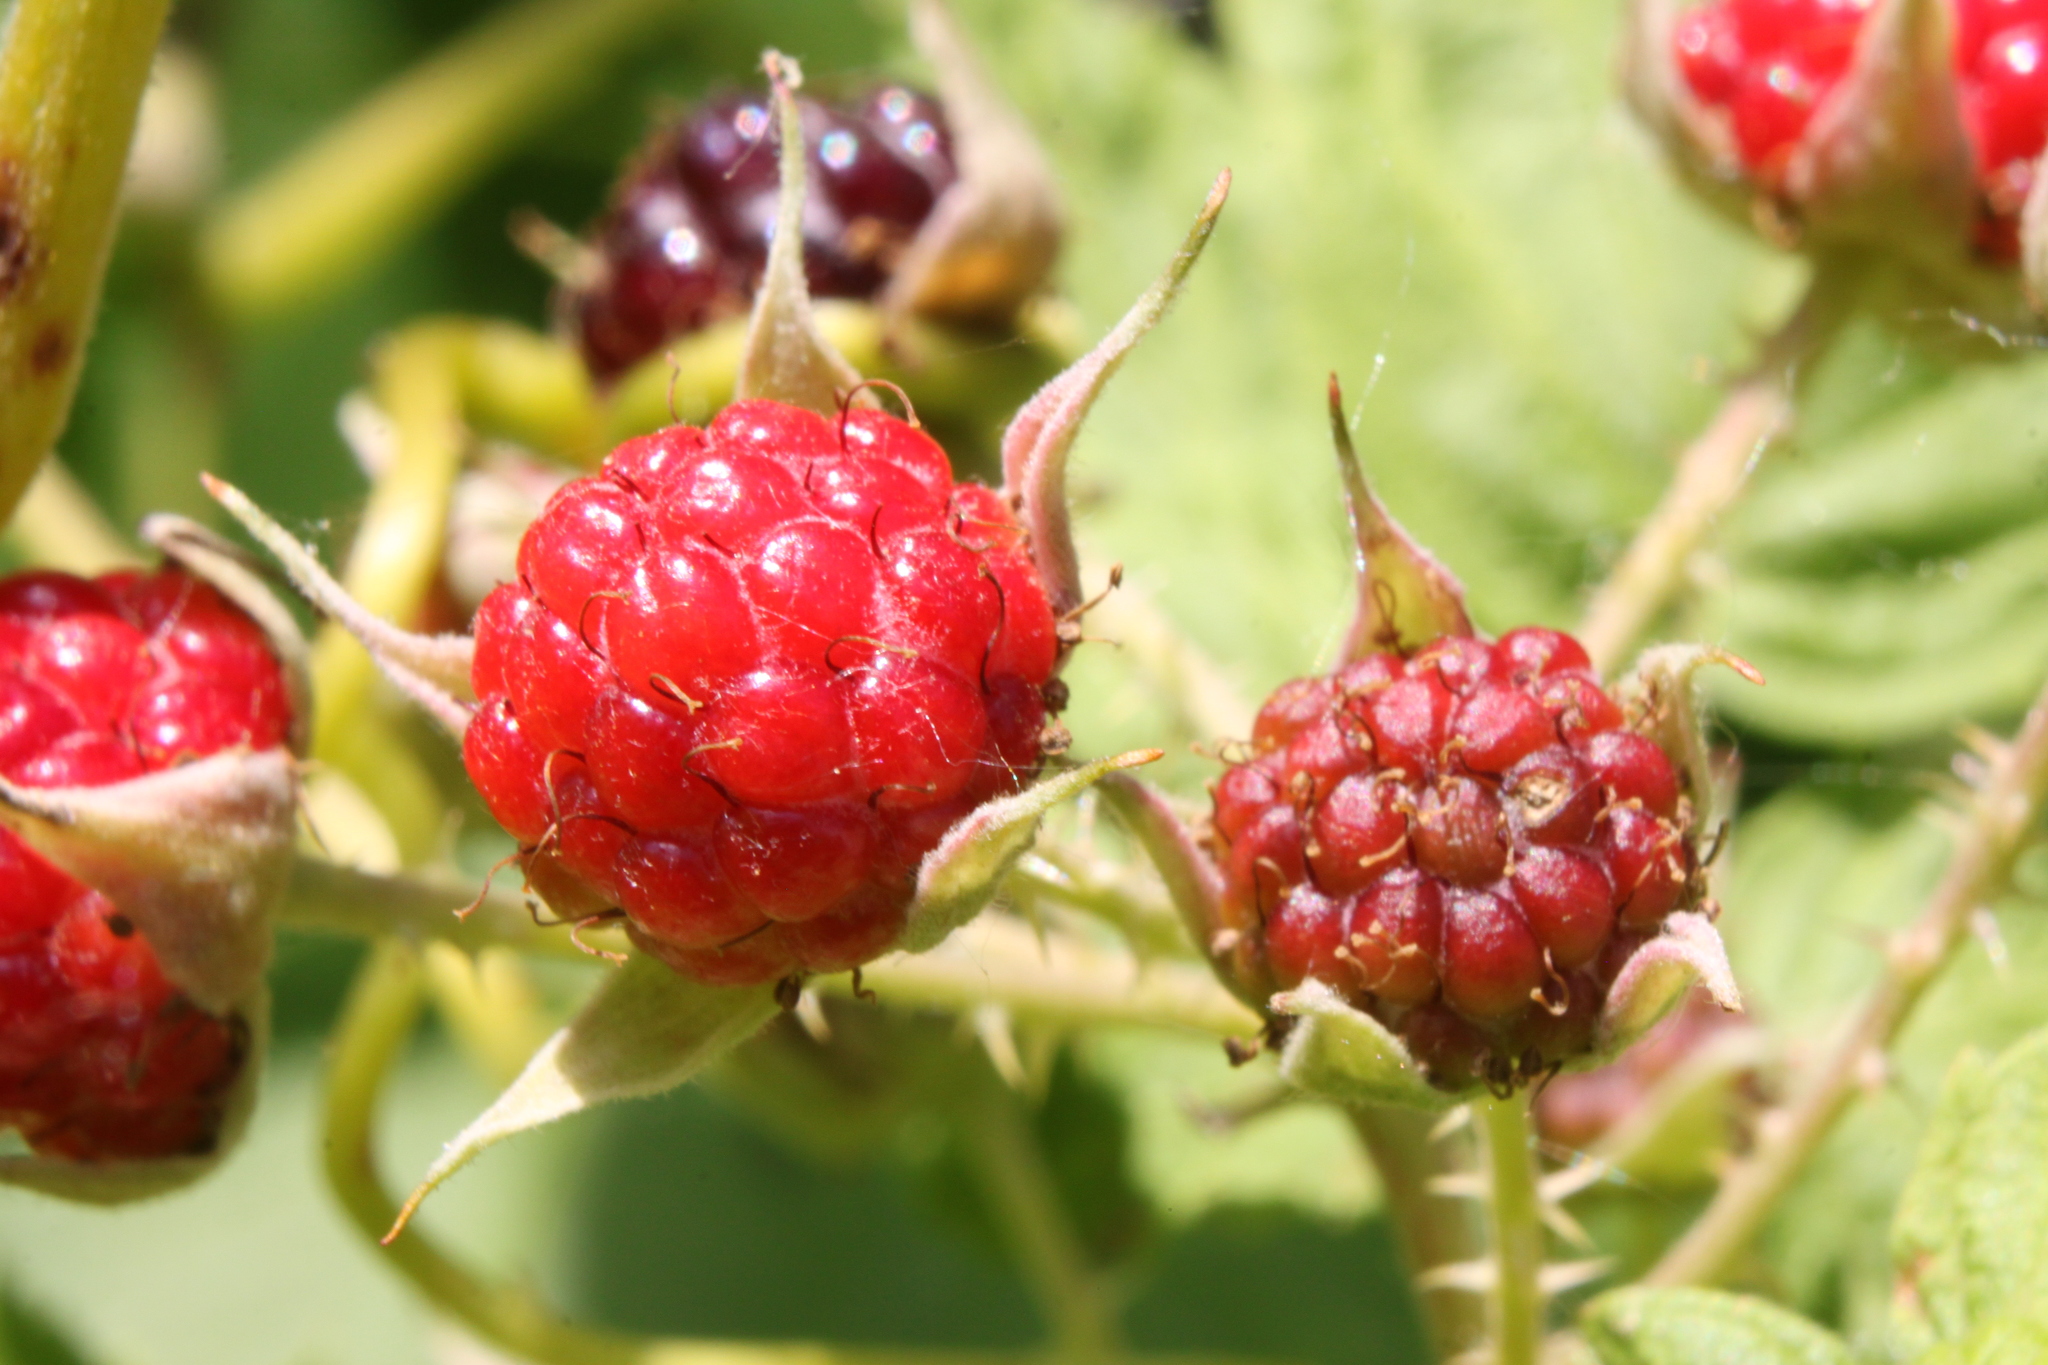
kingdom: Plantae
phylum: Tracheophyta
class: Magnoliopsida
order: Rosales
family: Rosaceae
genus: Rubus
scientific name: Rubus occidentalis
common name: Black raspberry
